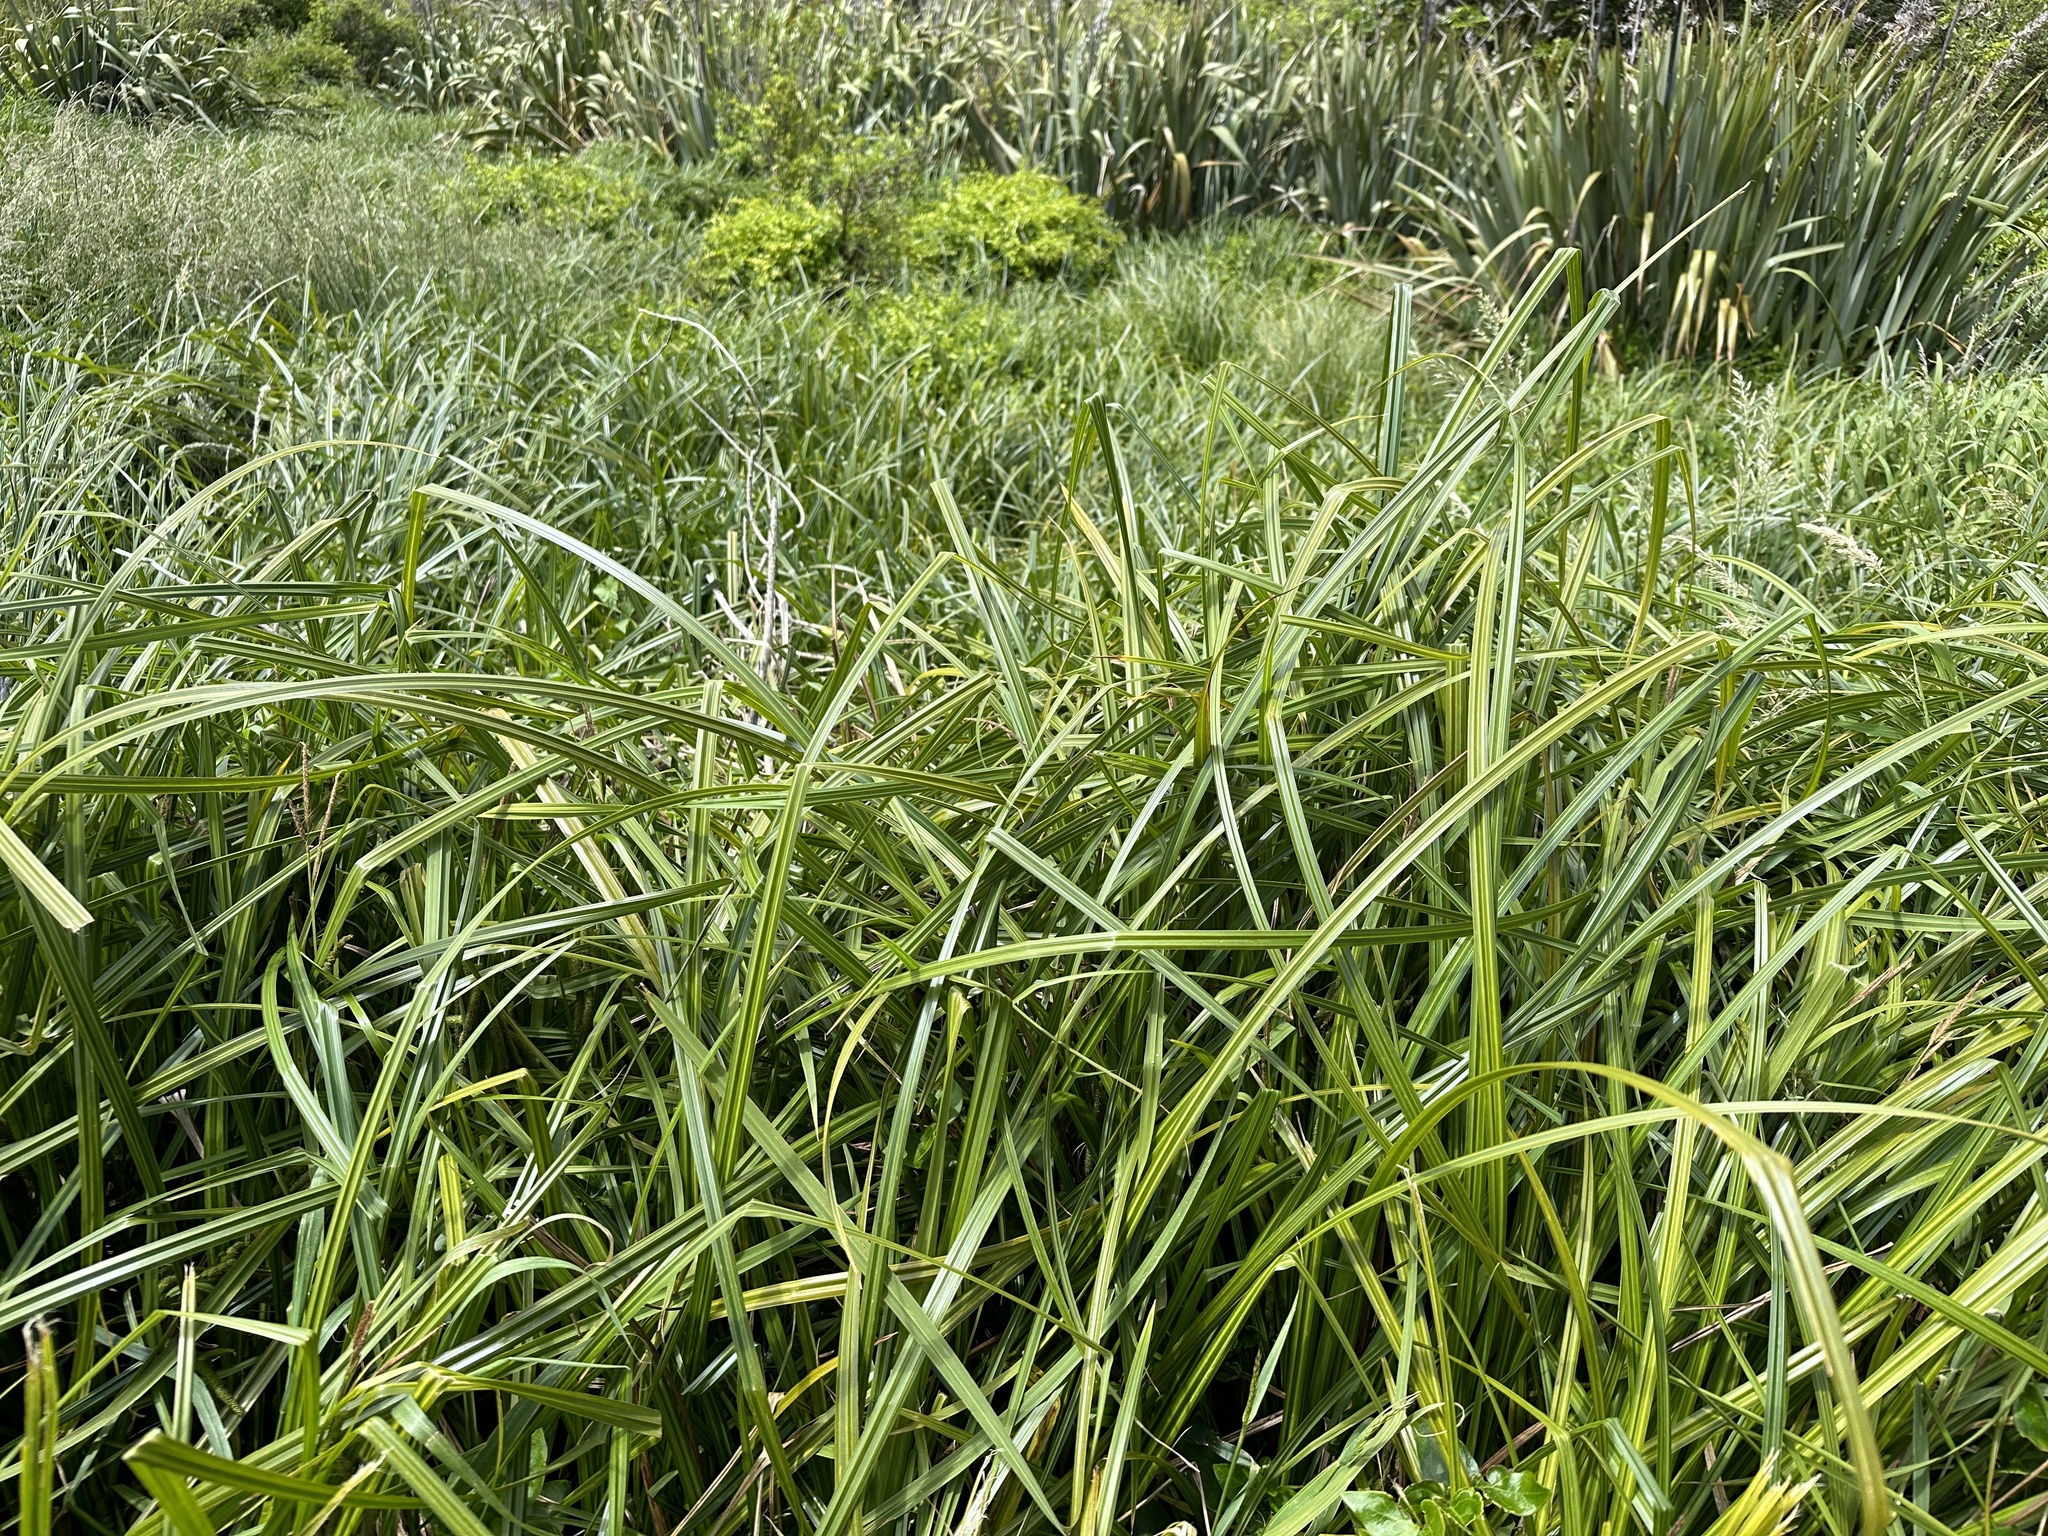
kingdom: Plantae
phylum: Tracheophyta
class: Liliopsida
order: Poales
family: Cyperaceae
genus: Carex
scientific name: Carex geminata
